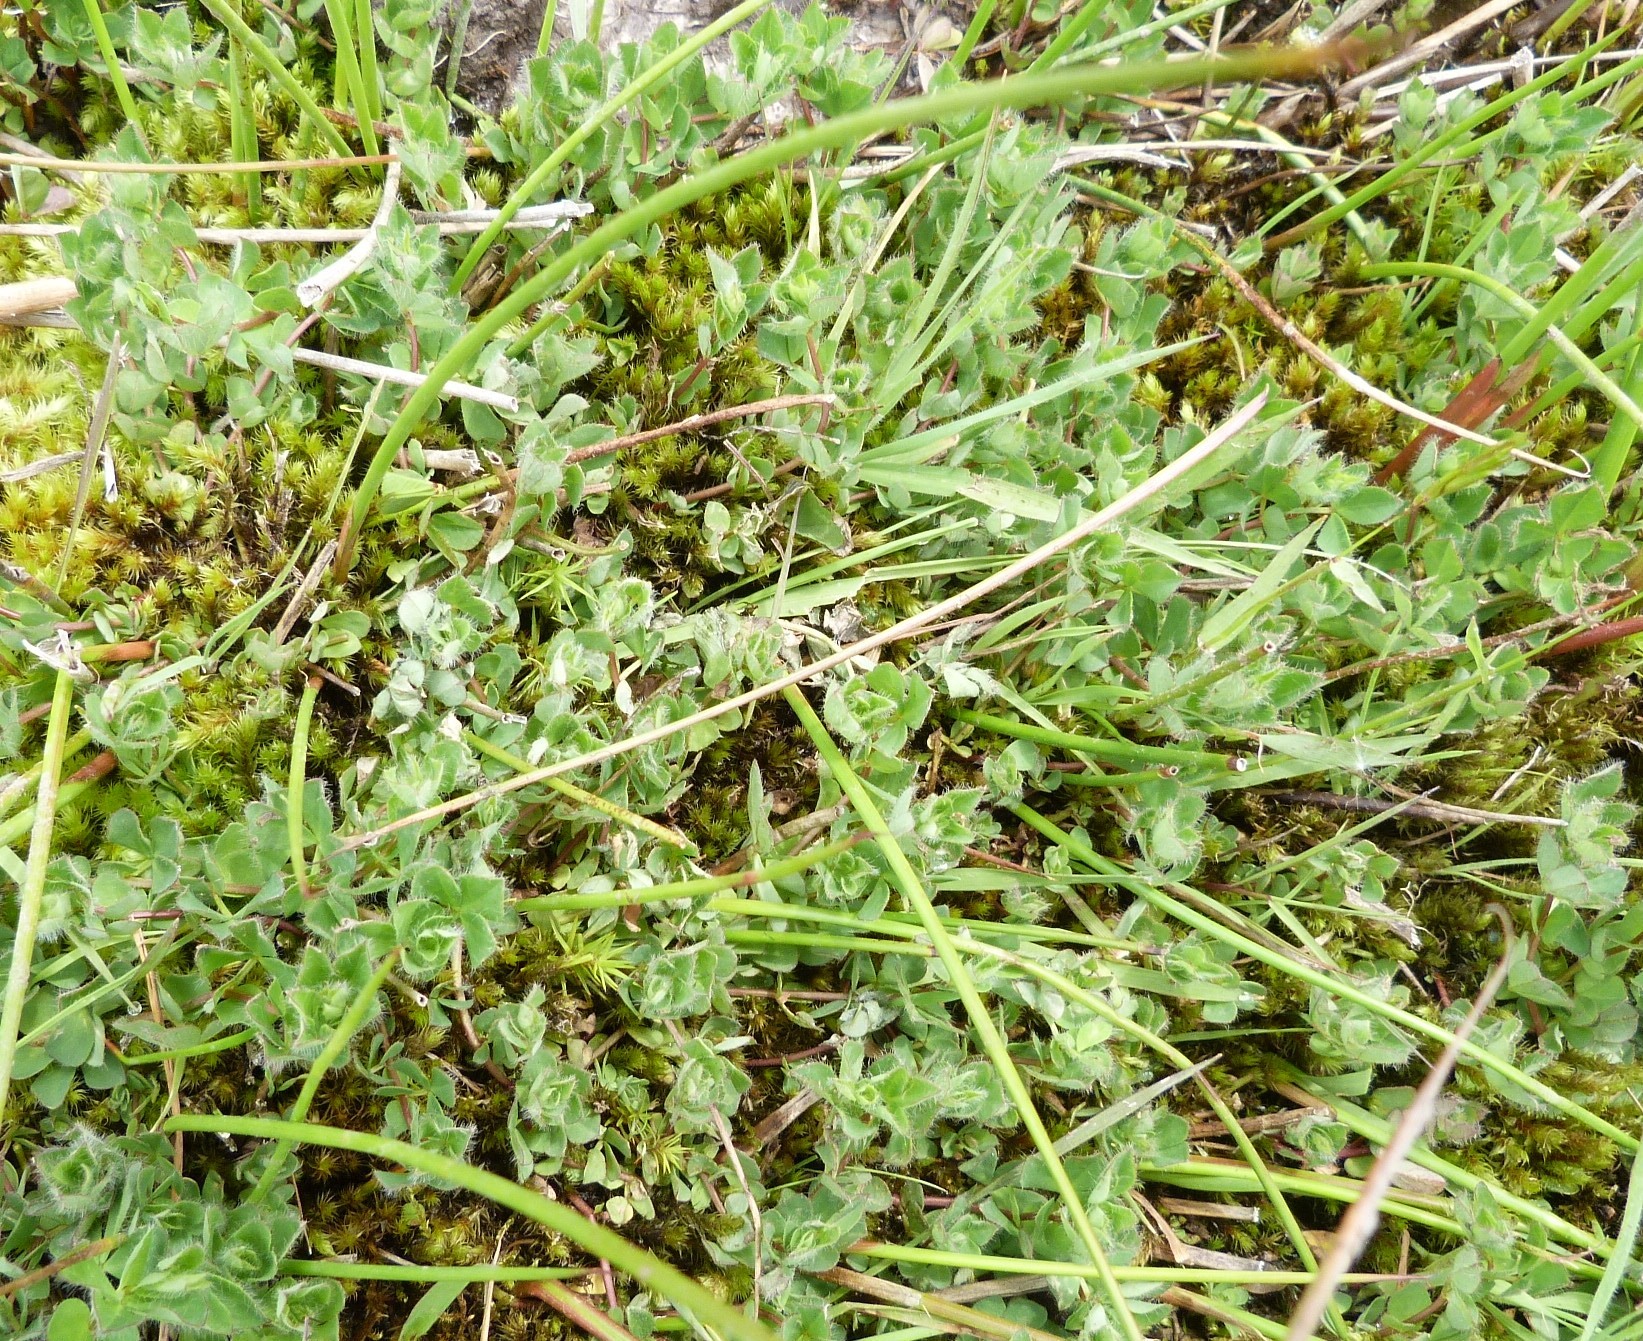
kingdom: Plantae
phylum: Tracheophyta
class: Magnoliopsida
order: Fabales
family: Fabaceae
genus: Lotus
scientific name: Lotus pedunculatus
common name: Greater birdsfoot-trefoil
